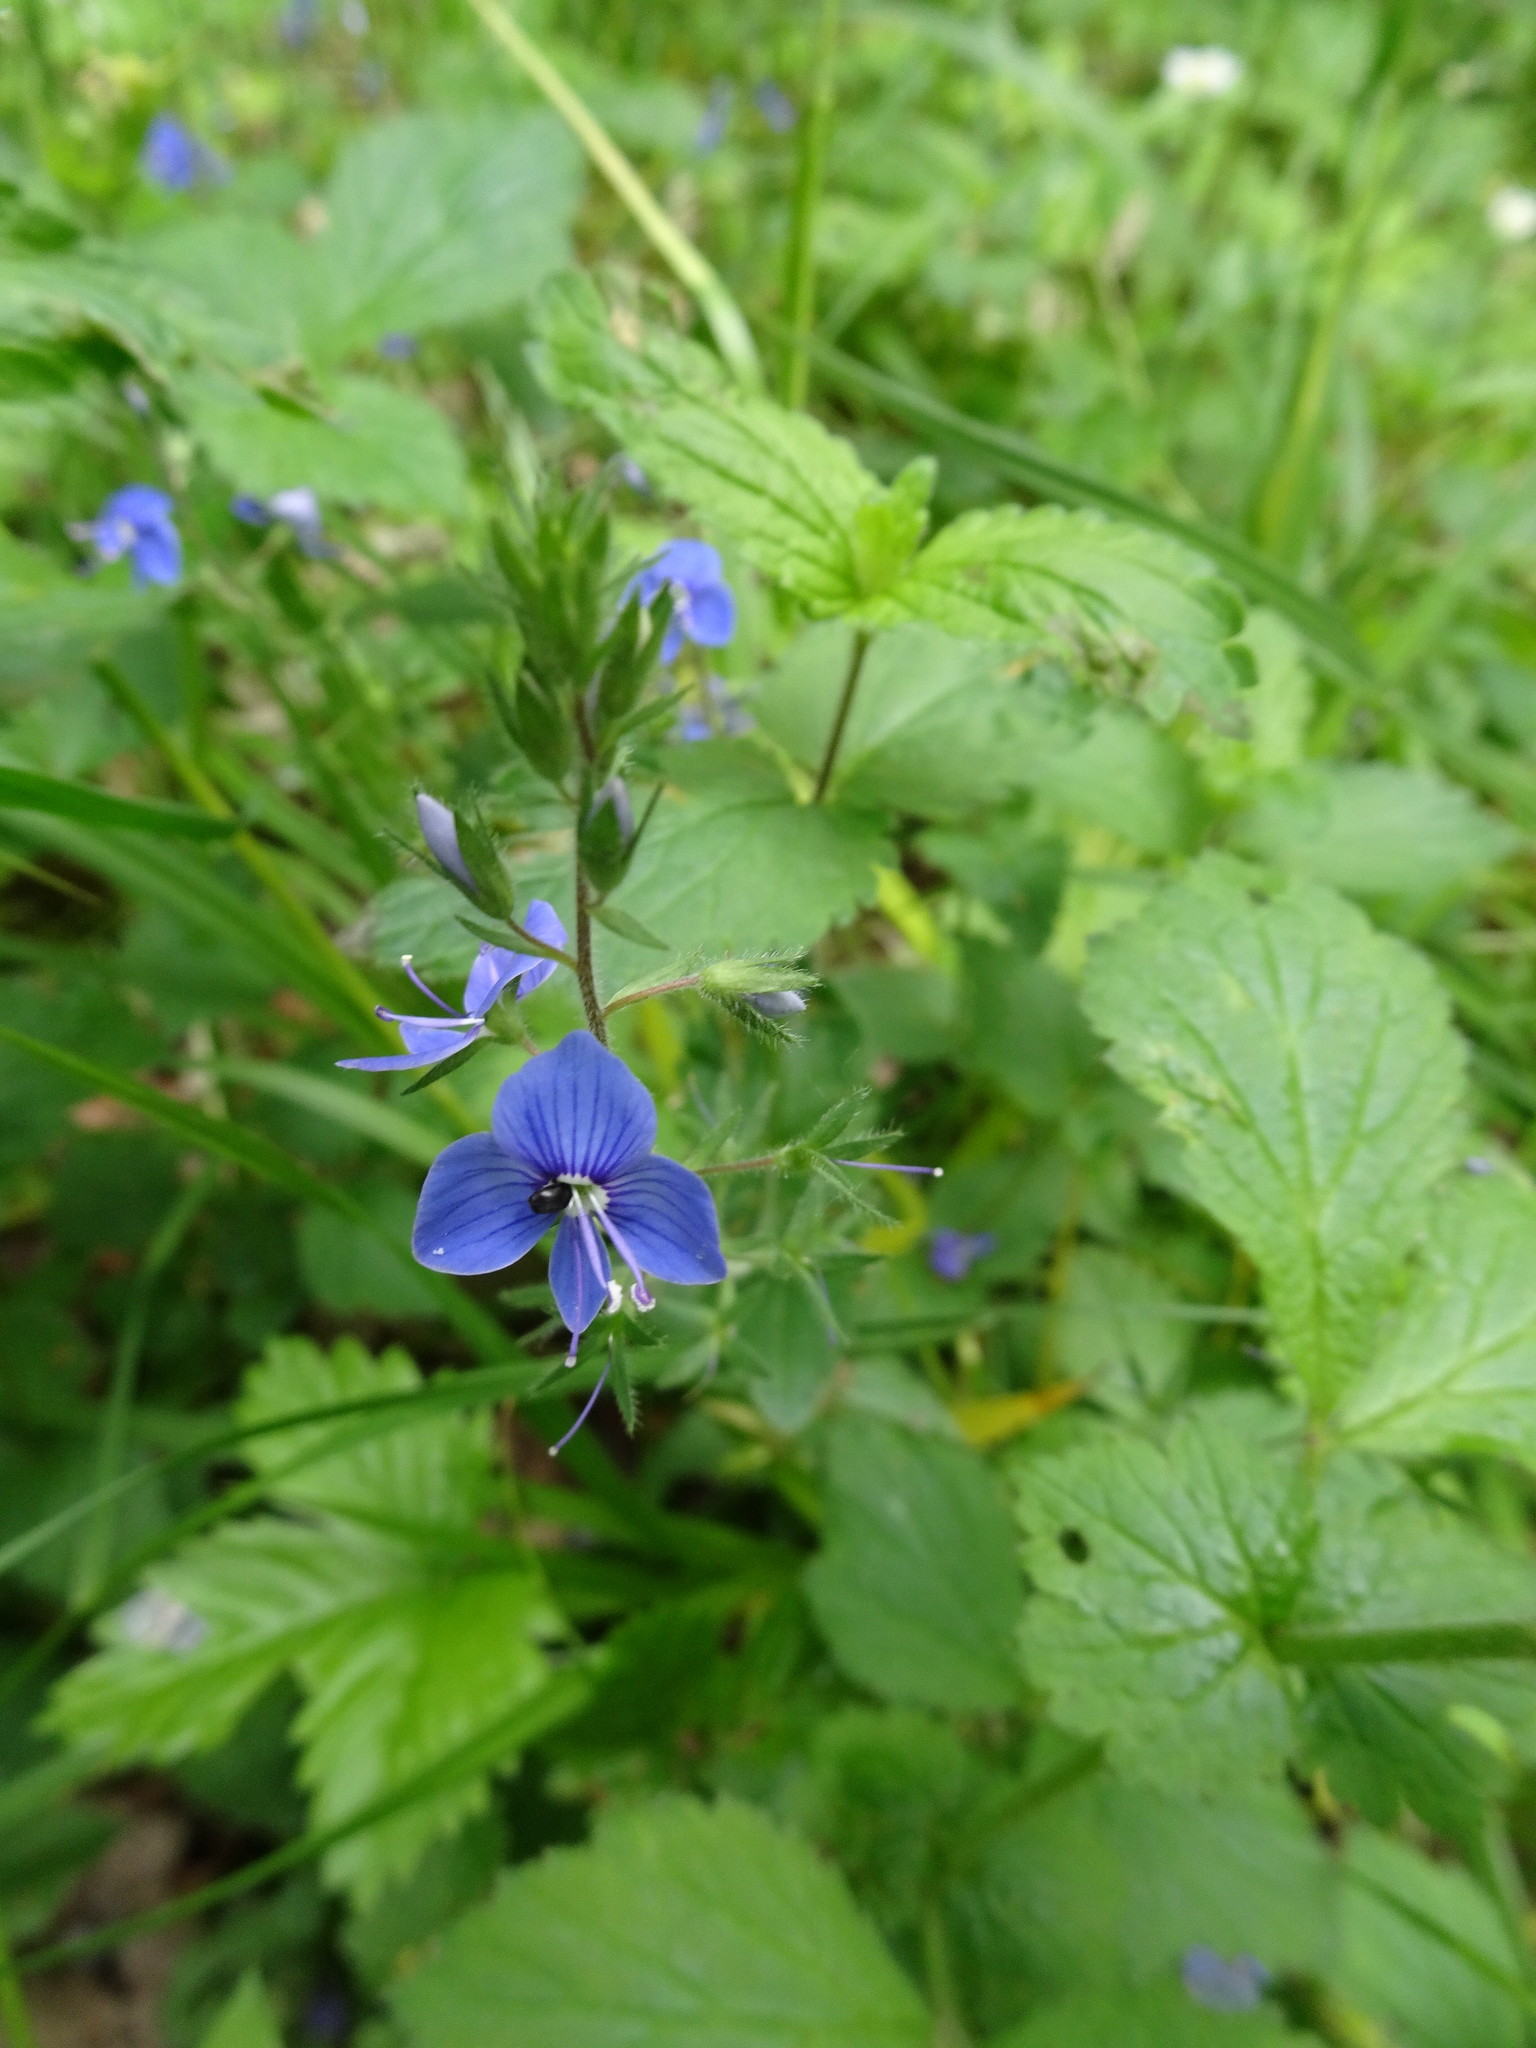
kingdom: Plantae
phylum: Tracheophyta
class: Magnoliopsida
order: Lamiales
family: Plantaginaceae
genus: Veronica
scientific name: Veronica chamaedrys
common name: Germander speedwell
